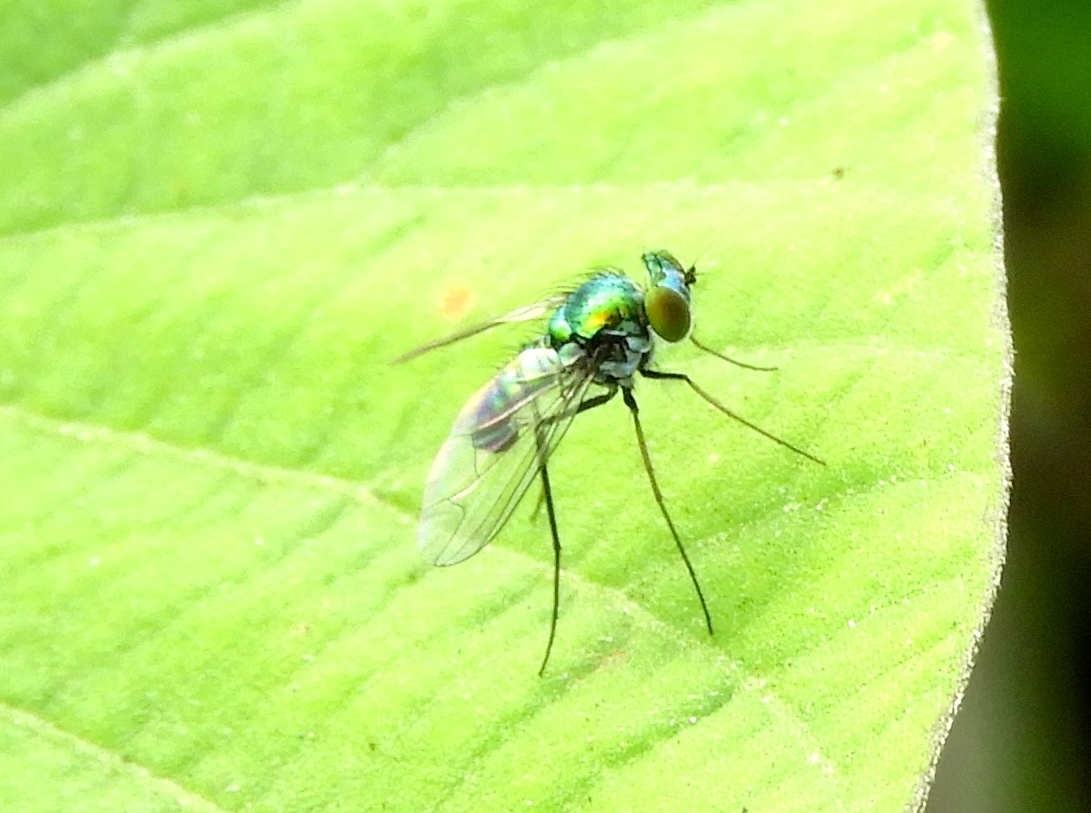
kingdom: Animalia
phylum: Arthropoda
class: Insecta
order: Diptera
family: Dolichopodidae
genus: Condylostylus
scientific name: Condylostylus
